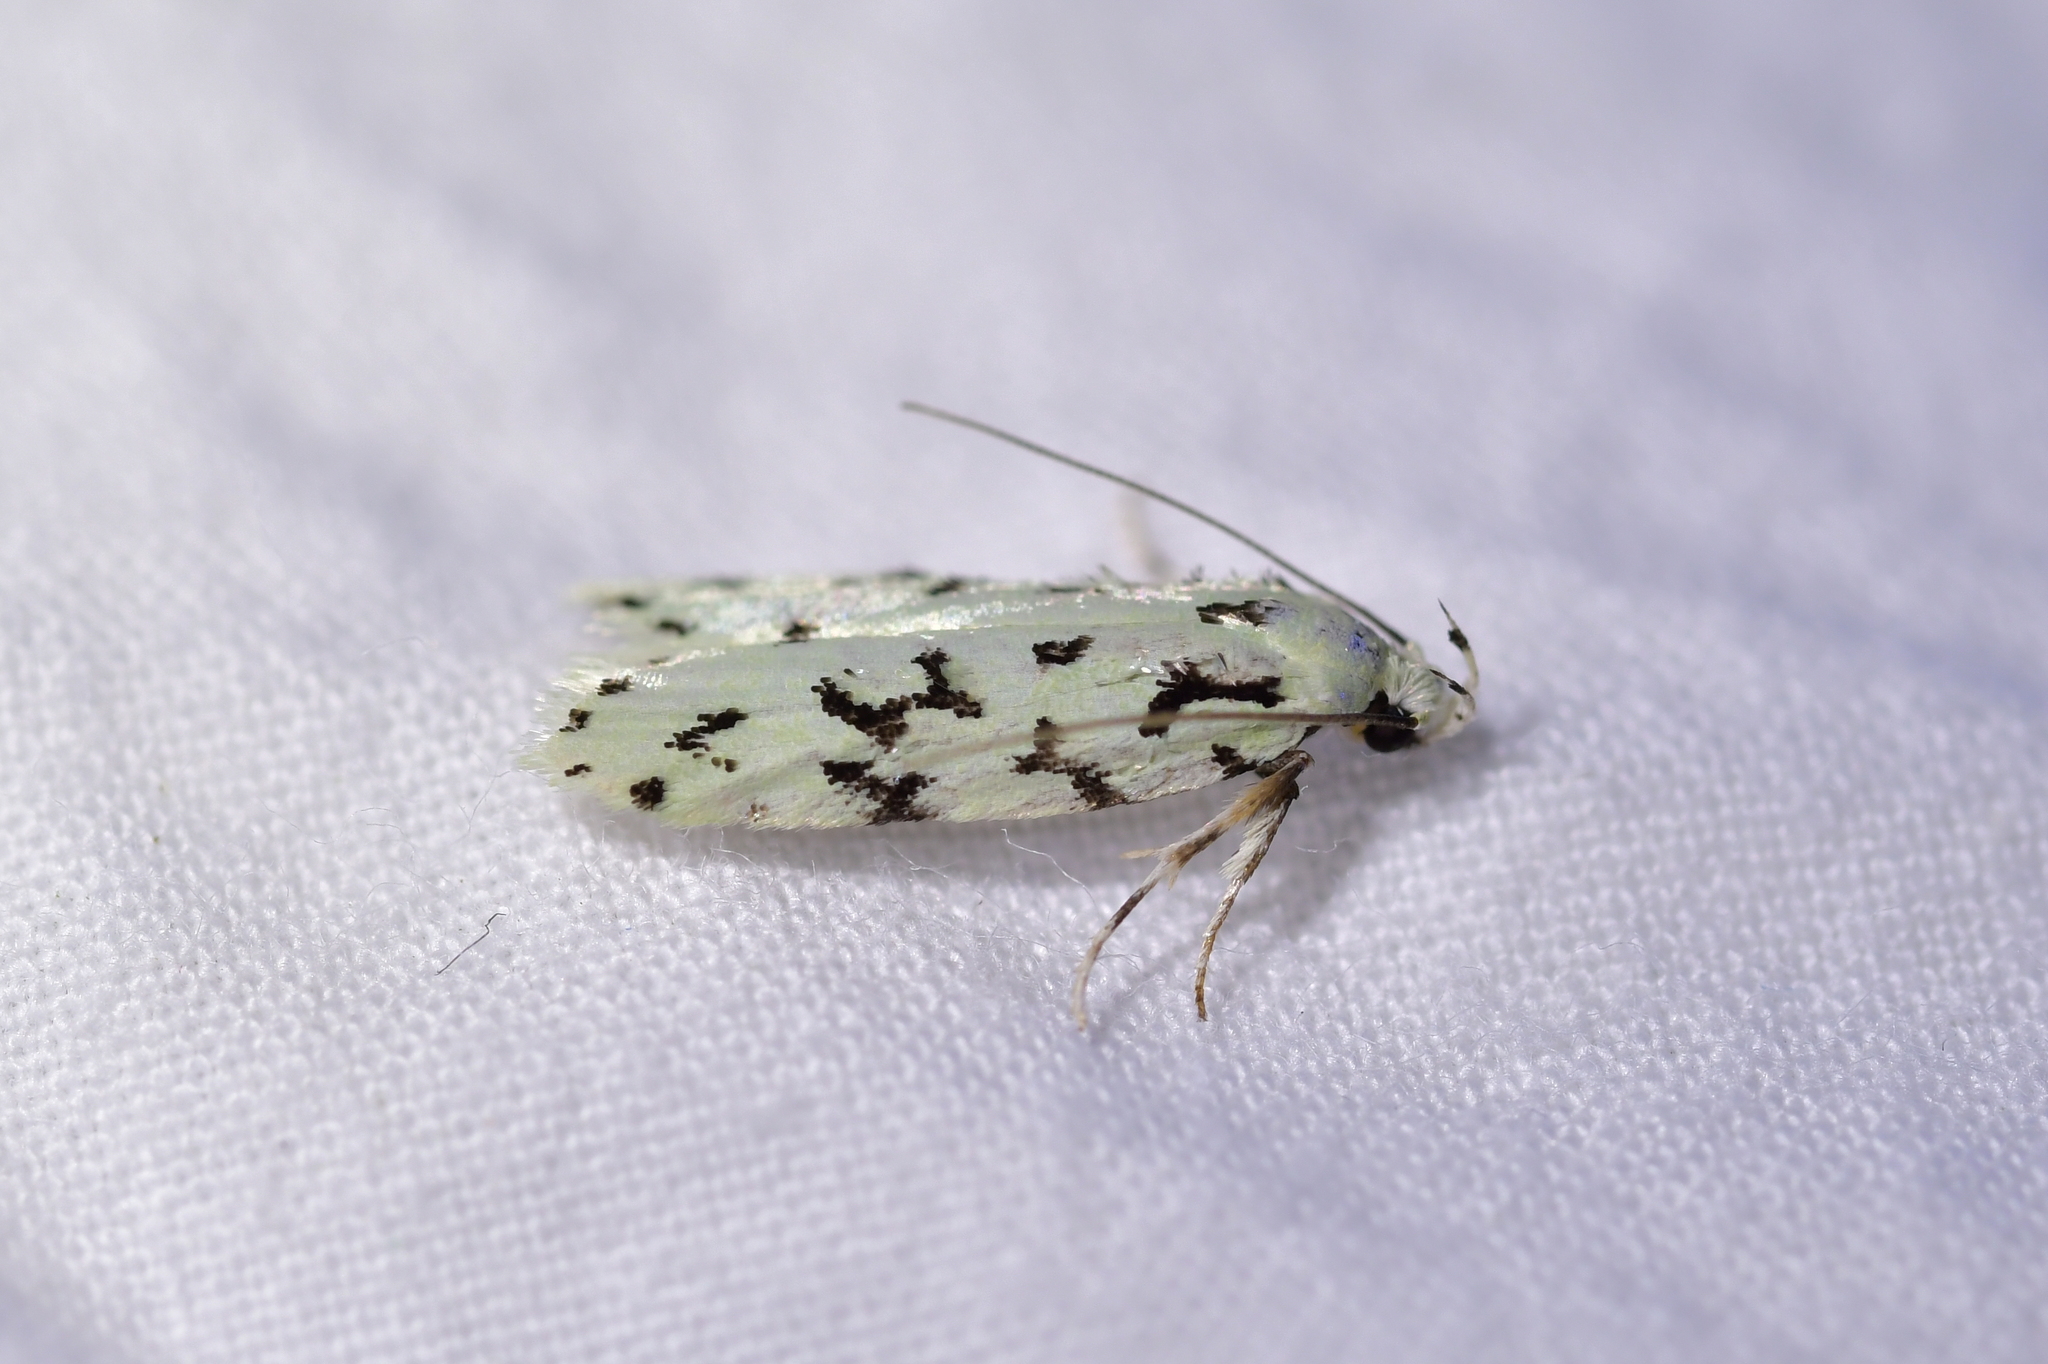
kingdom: Animalia
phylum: Arthropoda
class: Insecta
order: Lepidoptera
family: Oecophoridae
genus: Izatha
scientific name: Izatha huttoni
